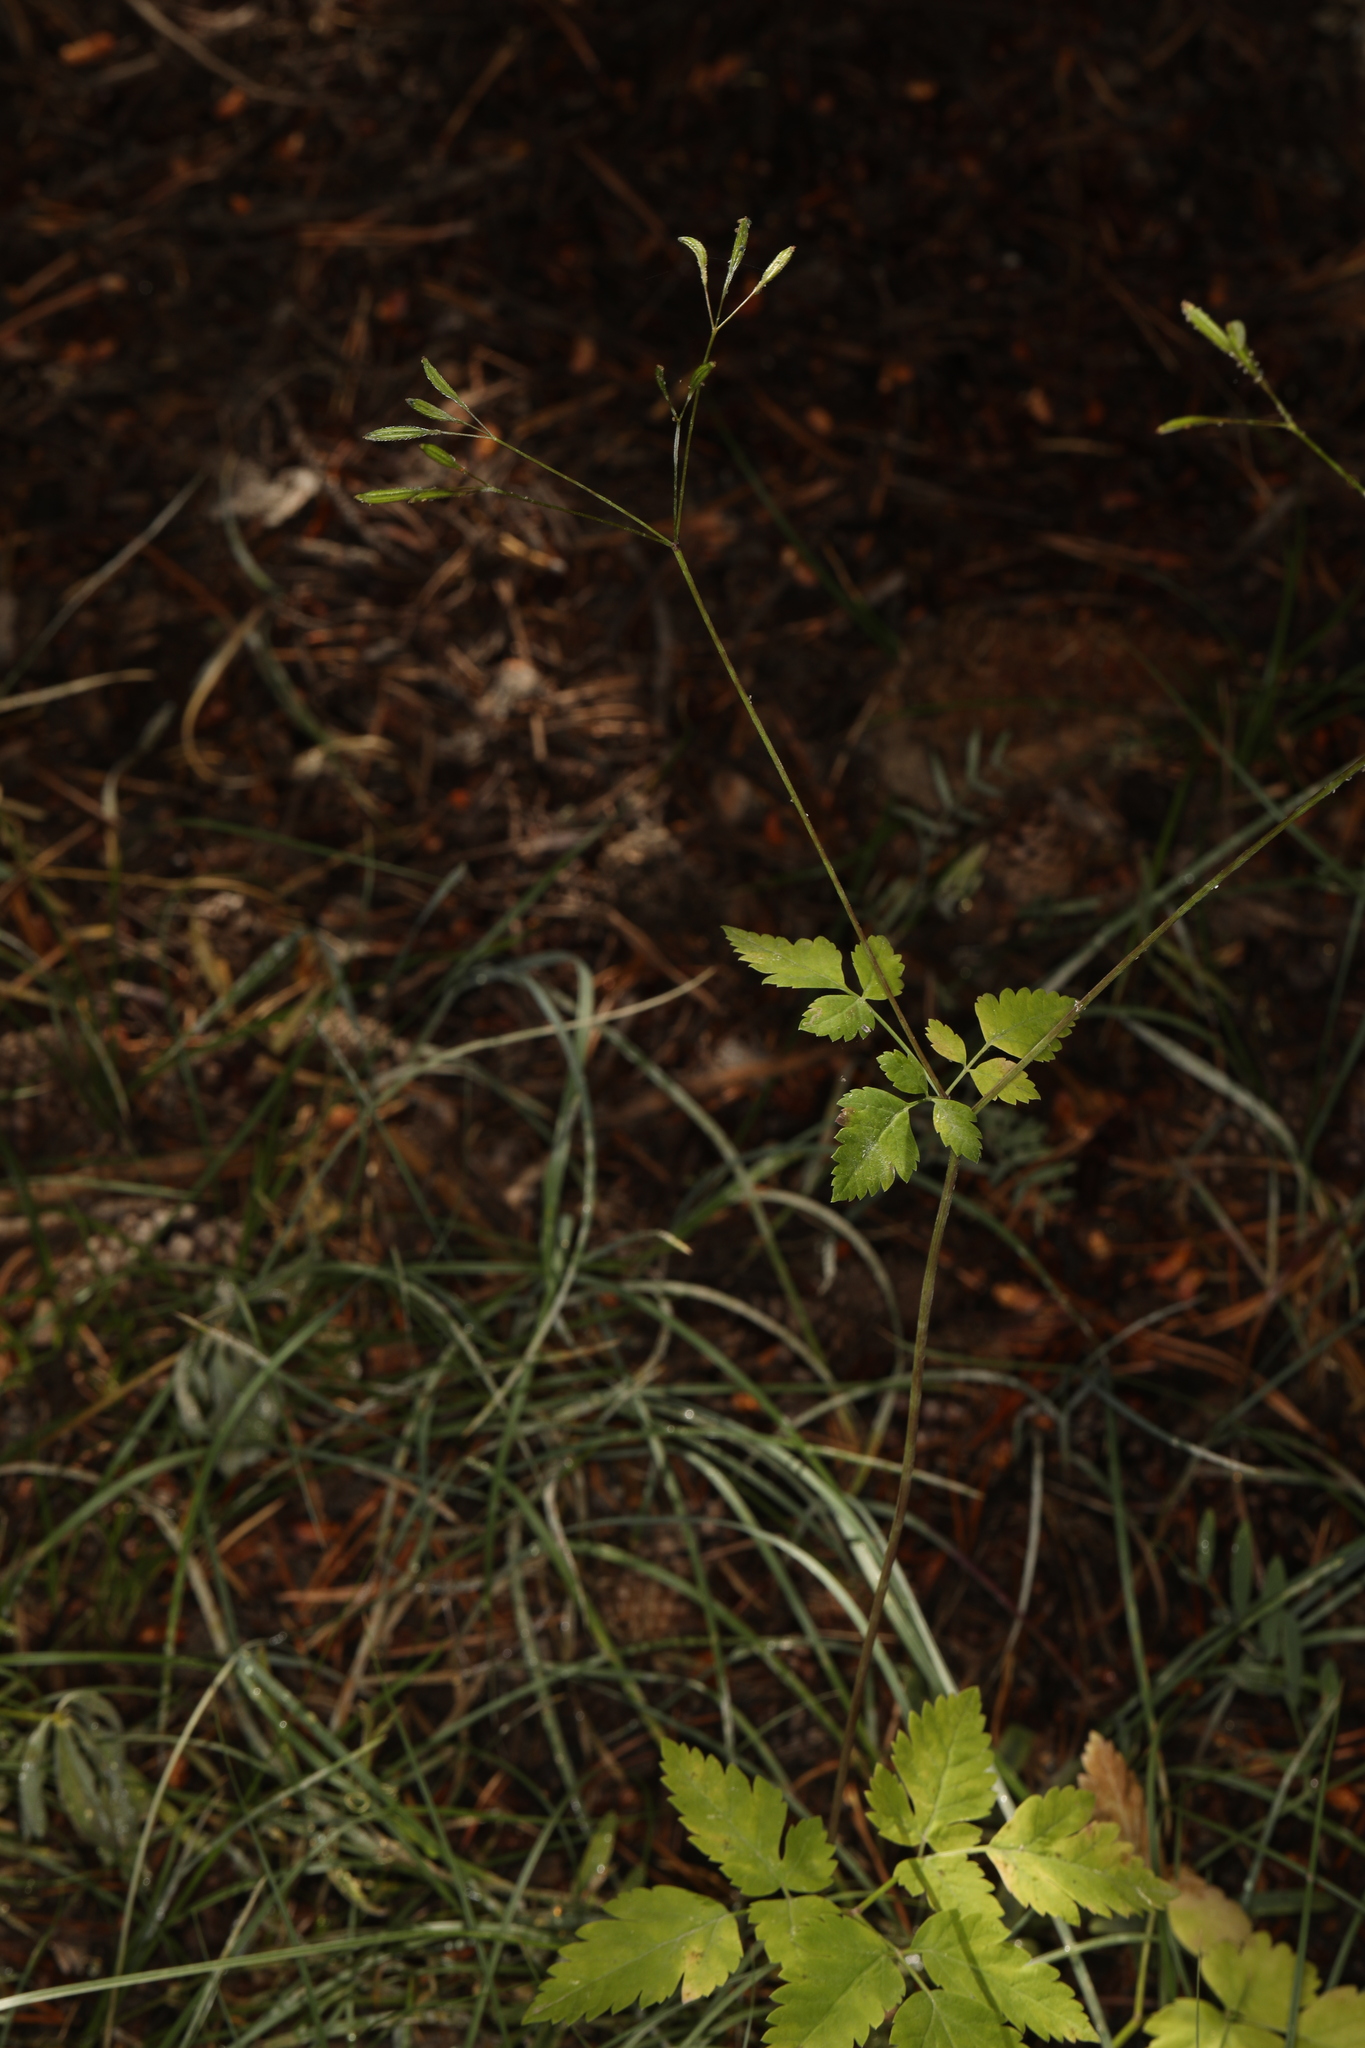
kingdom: Plantae
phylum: Tracheophyta
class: Magnoliopsida
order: Apiales
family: Apiaceae
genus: Osmorhiza
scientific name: Osmorhiza berteroi
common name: Mountain sweet cicely
